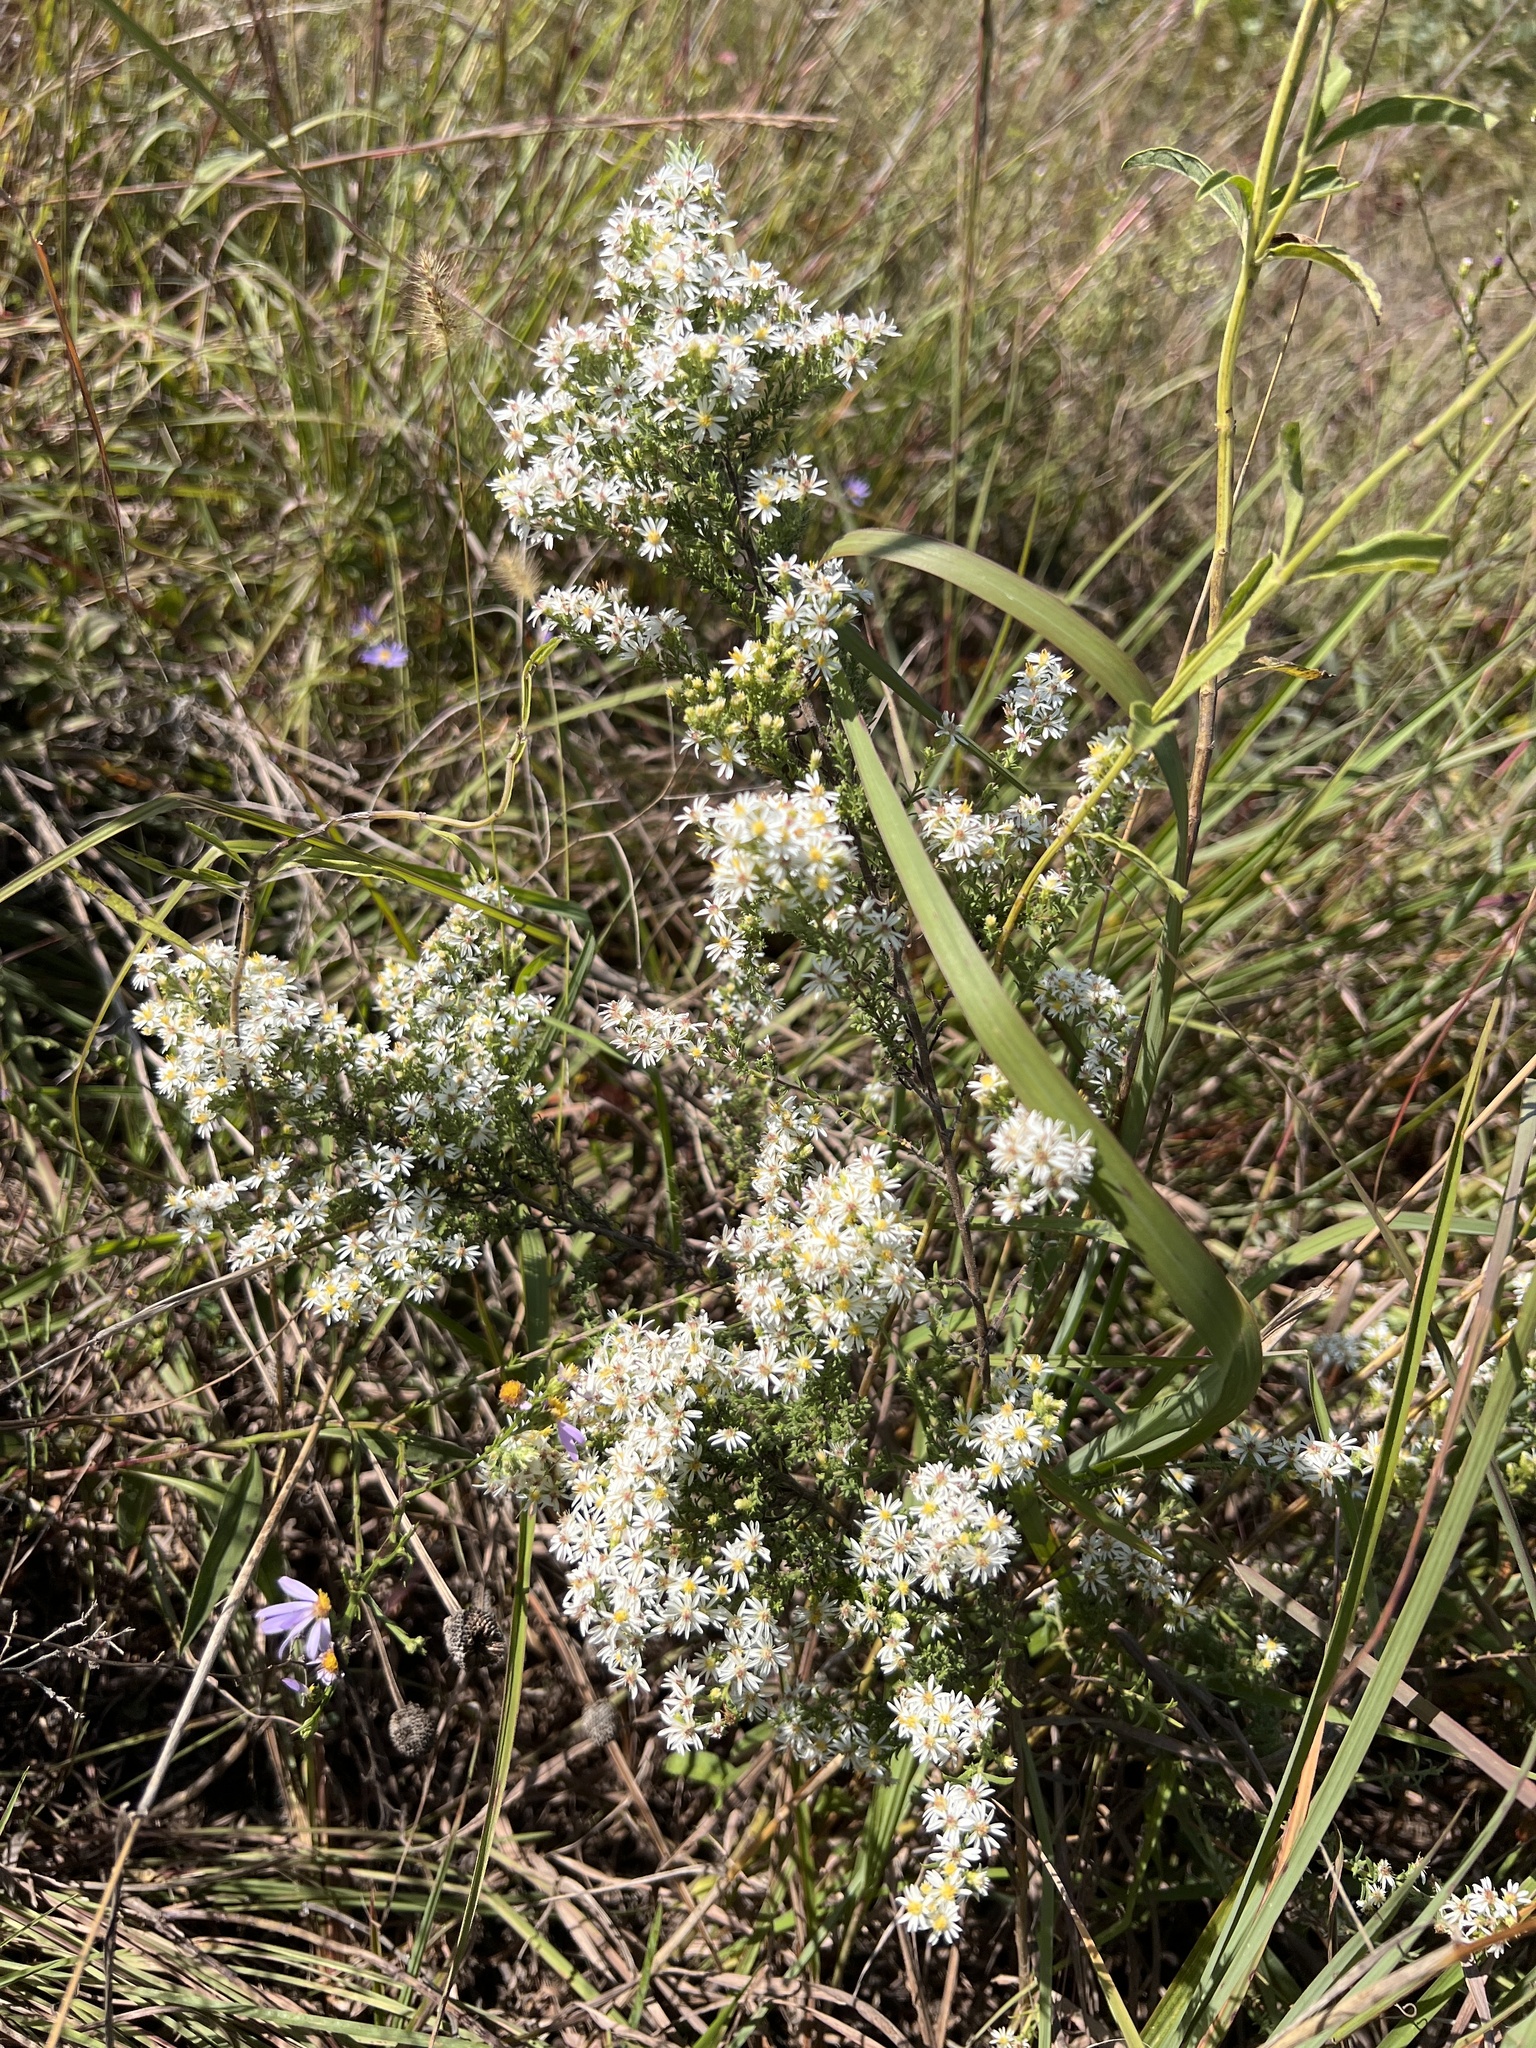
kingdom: Plantae
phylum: Tracheophyta
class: Magnoliopsida
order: Asterales
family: Asteraceae
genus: Symphyotrichum
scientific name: Symphyotrichum ericoides
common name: Heath aster
